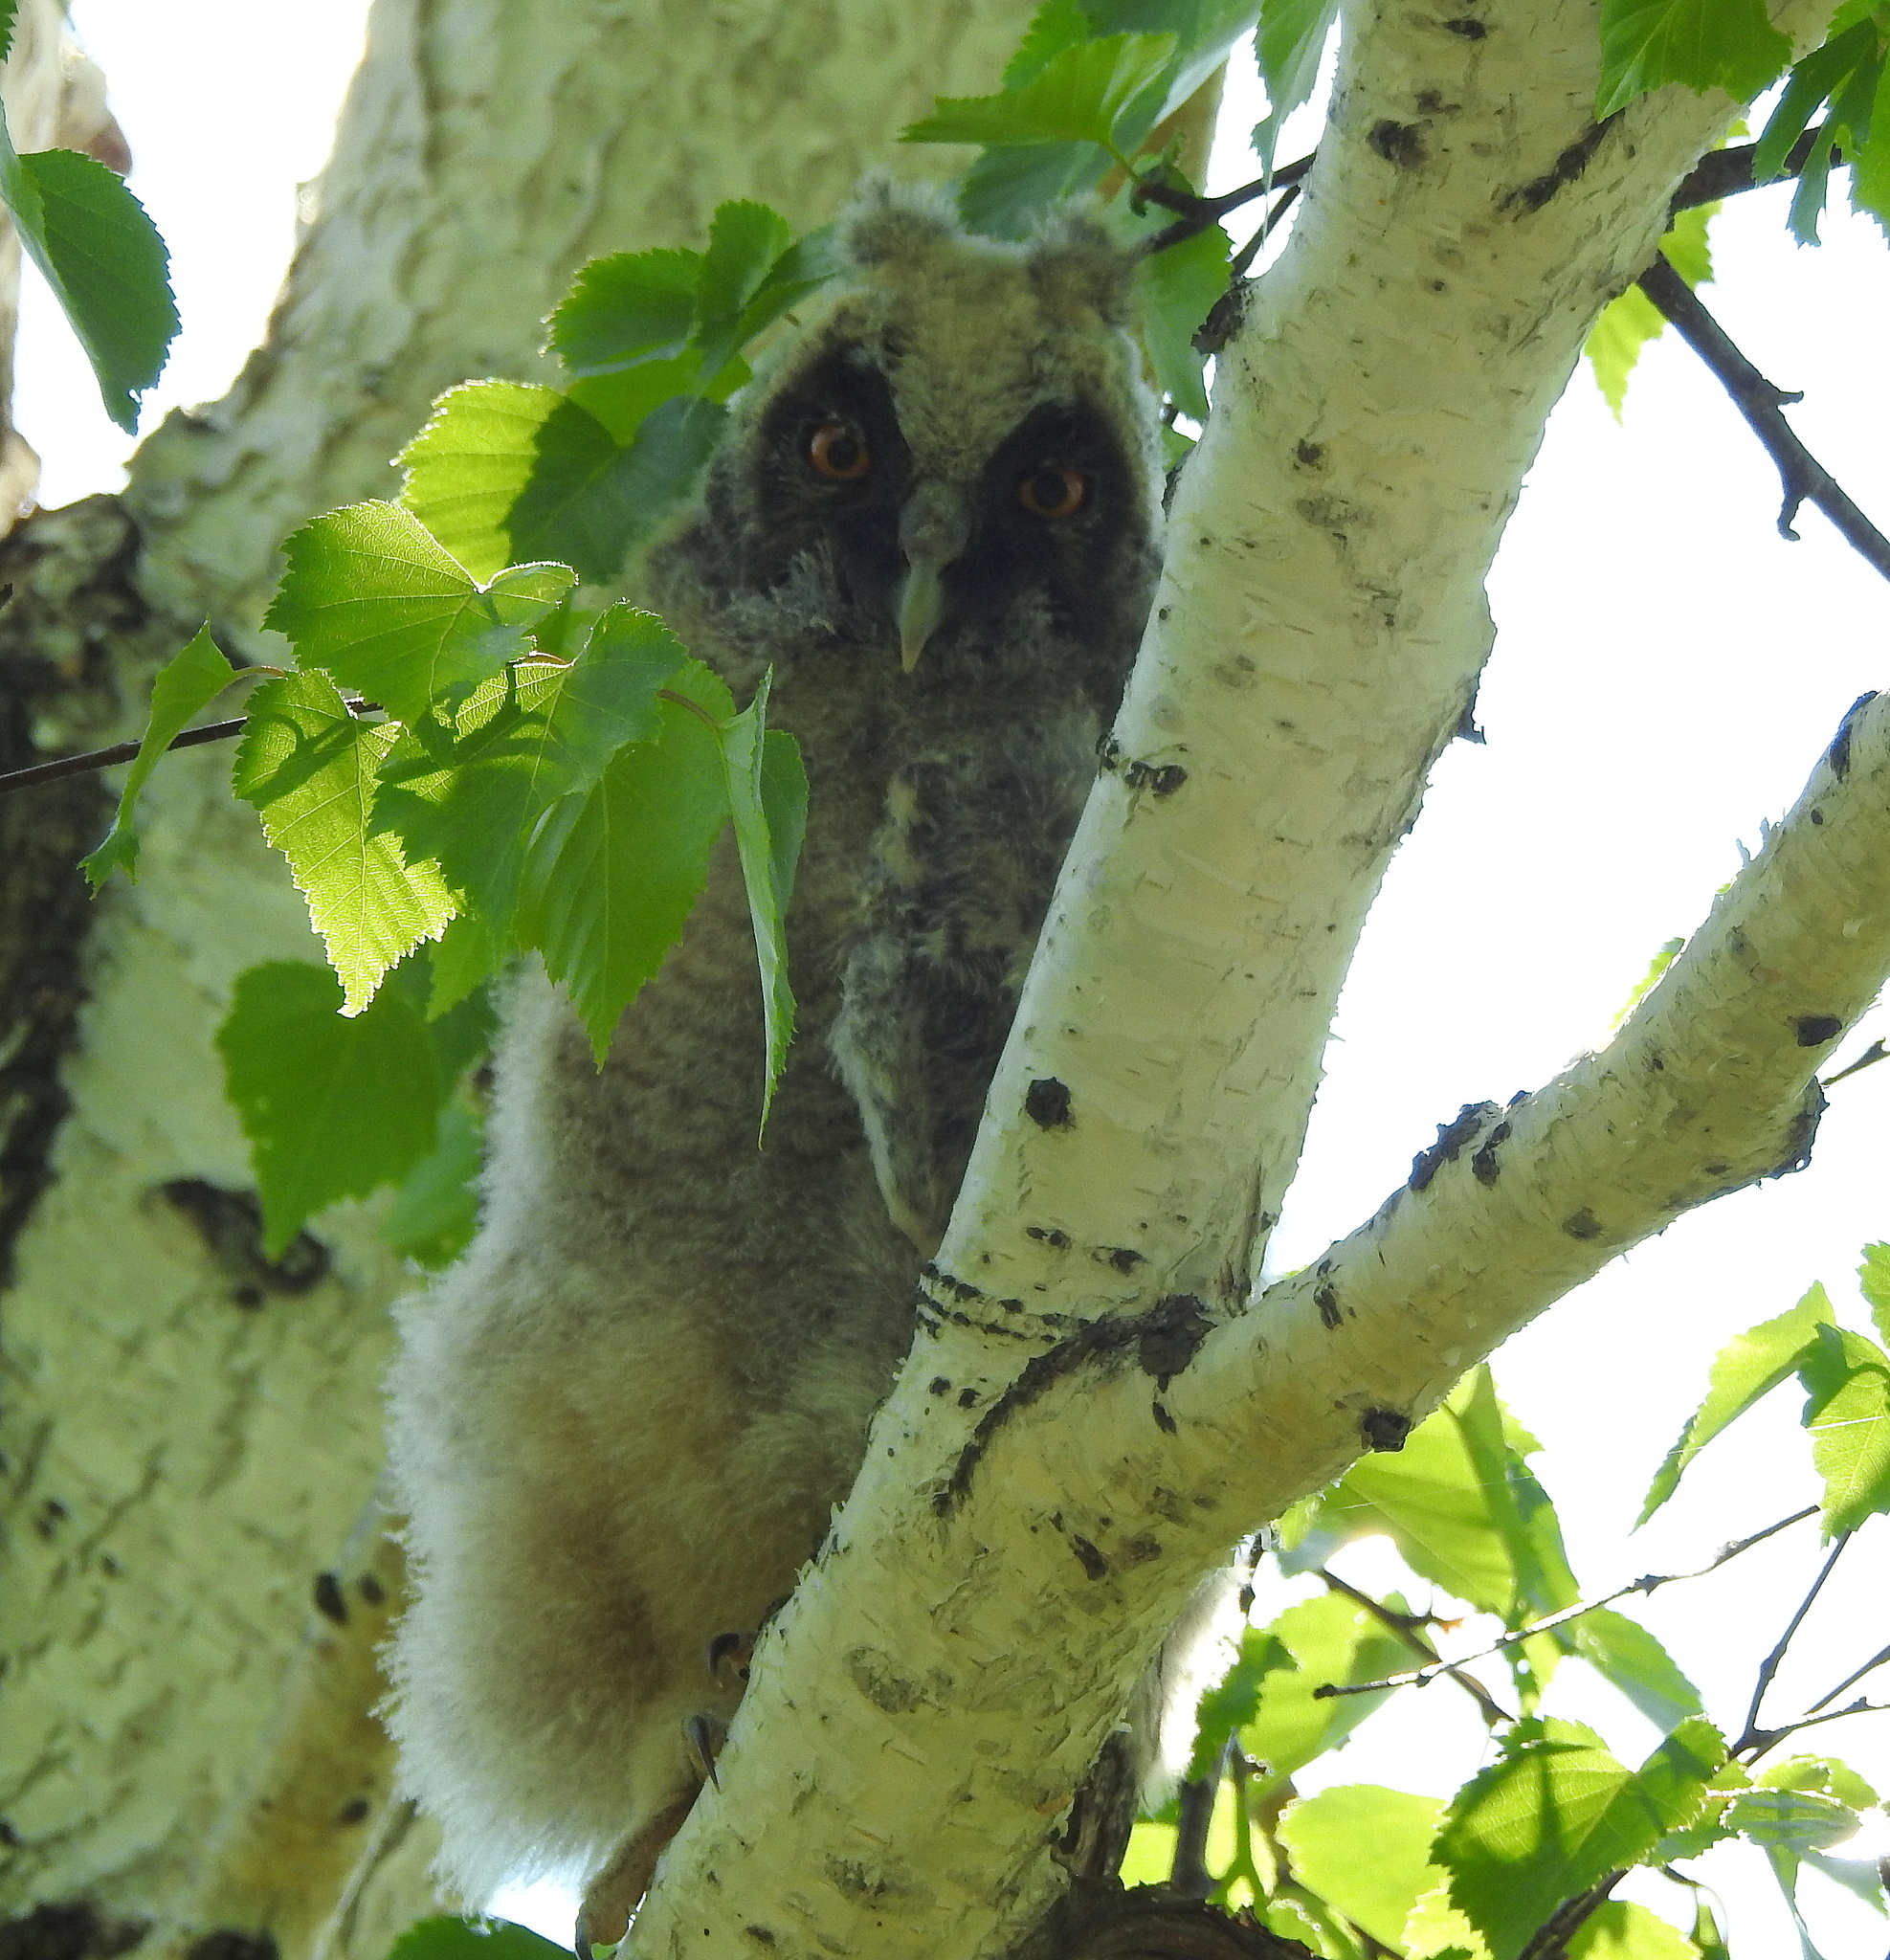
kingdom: Animalia
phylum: Chordata
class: Aves
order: Strigiformes
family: Strigidae
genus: Asio
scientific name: Asio otus
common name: Long-eared owl
